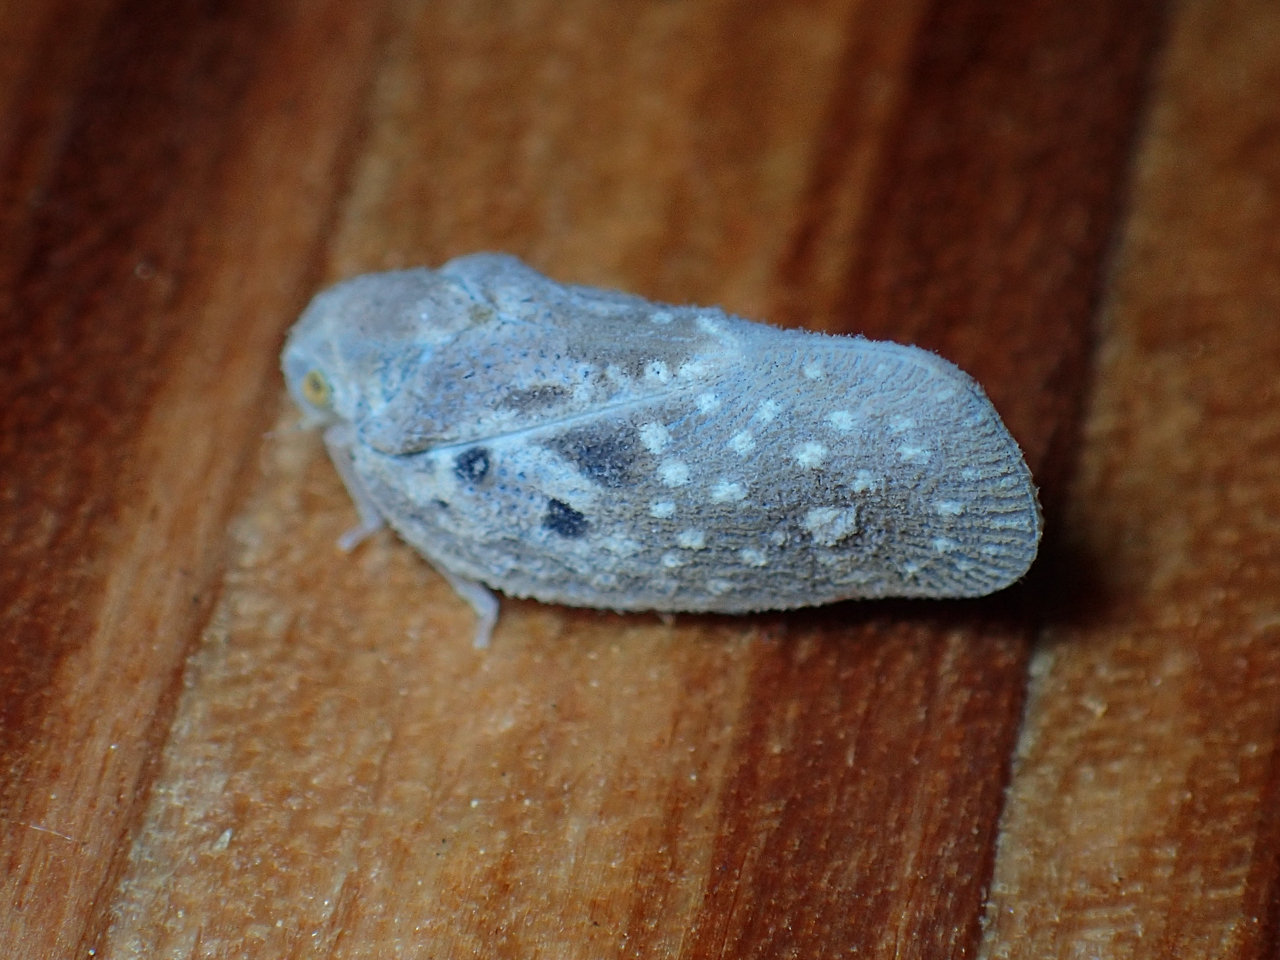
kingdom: Animalia
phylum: Arthropoda
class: Insecta
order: Hemiptera
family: Flatidae
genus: Metcalfa
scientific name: Metcalfa pruinosa
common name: Citrus flatid planthopper
